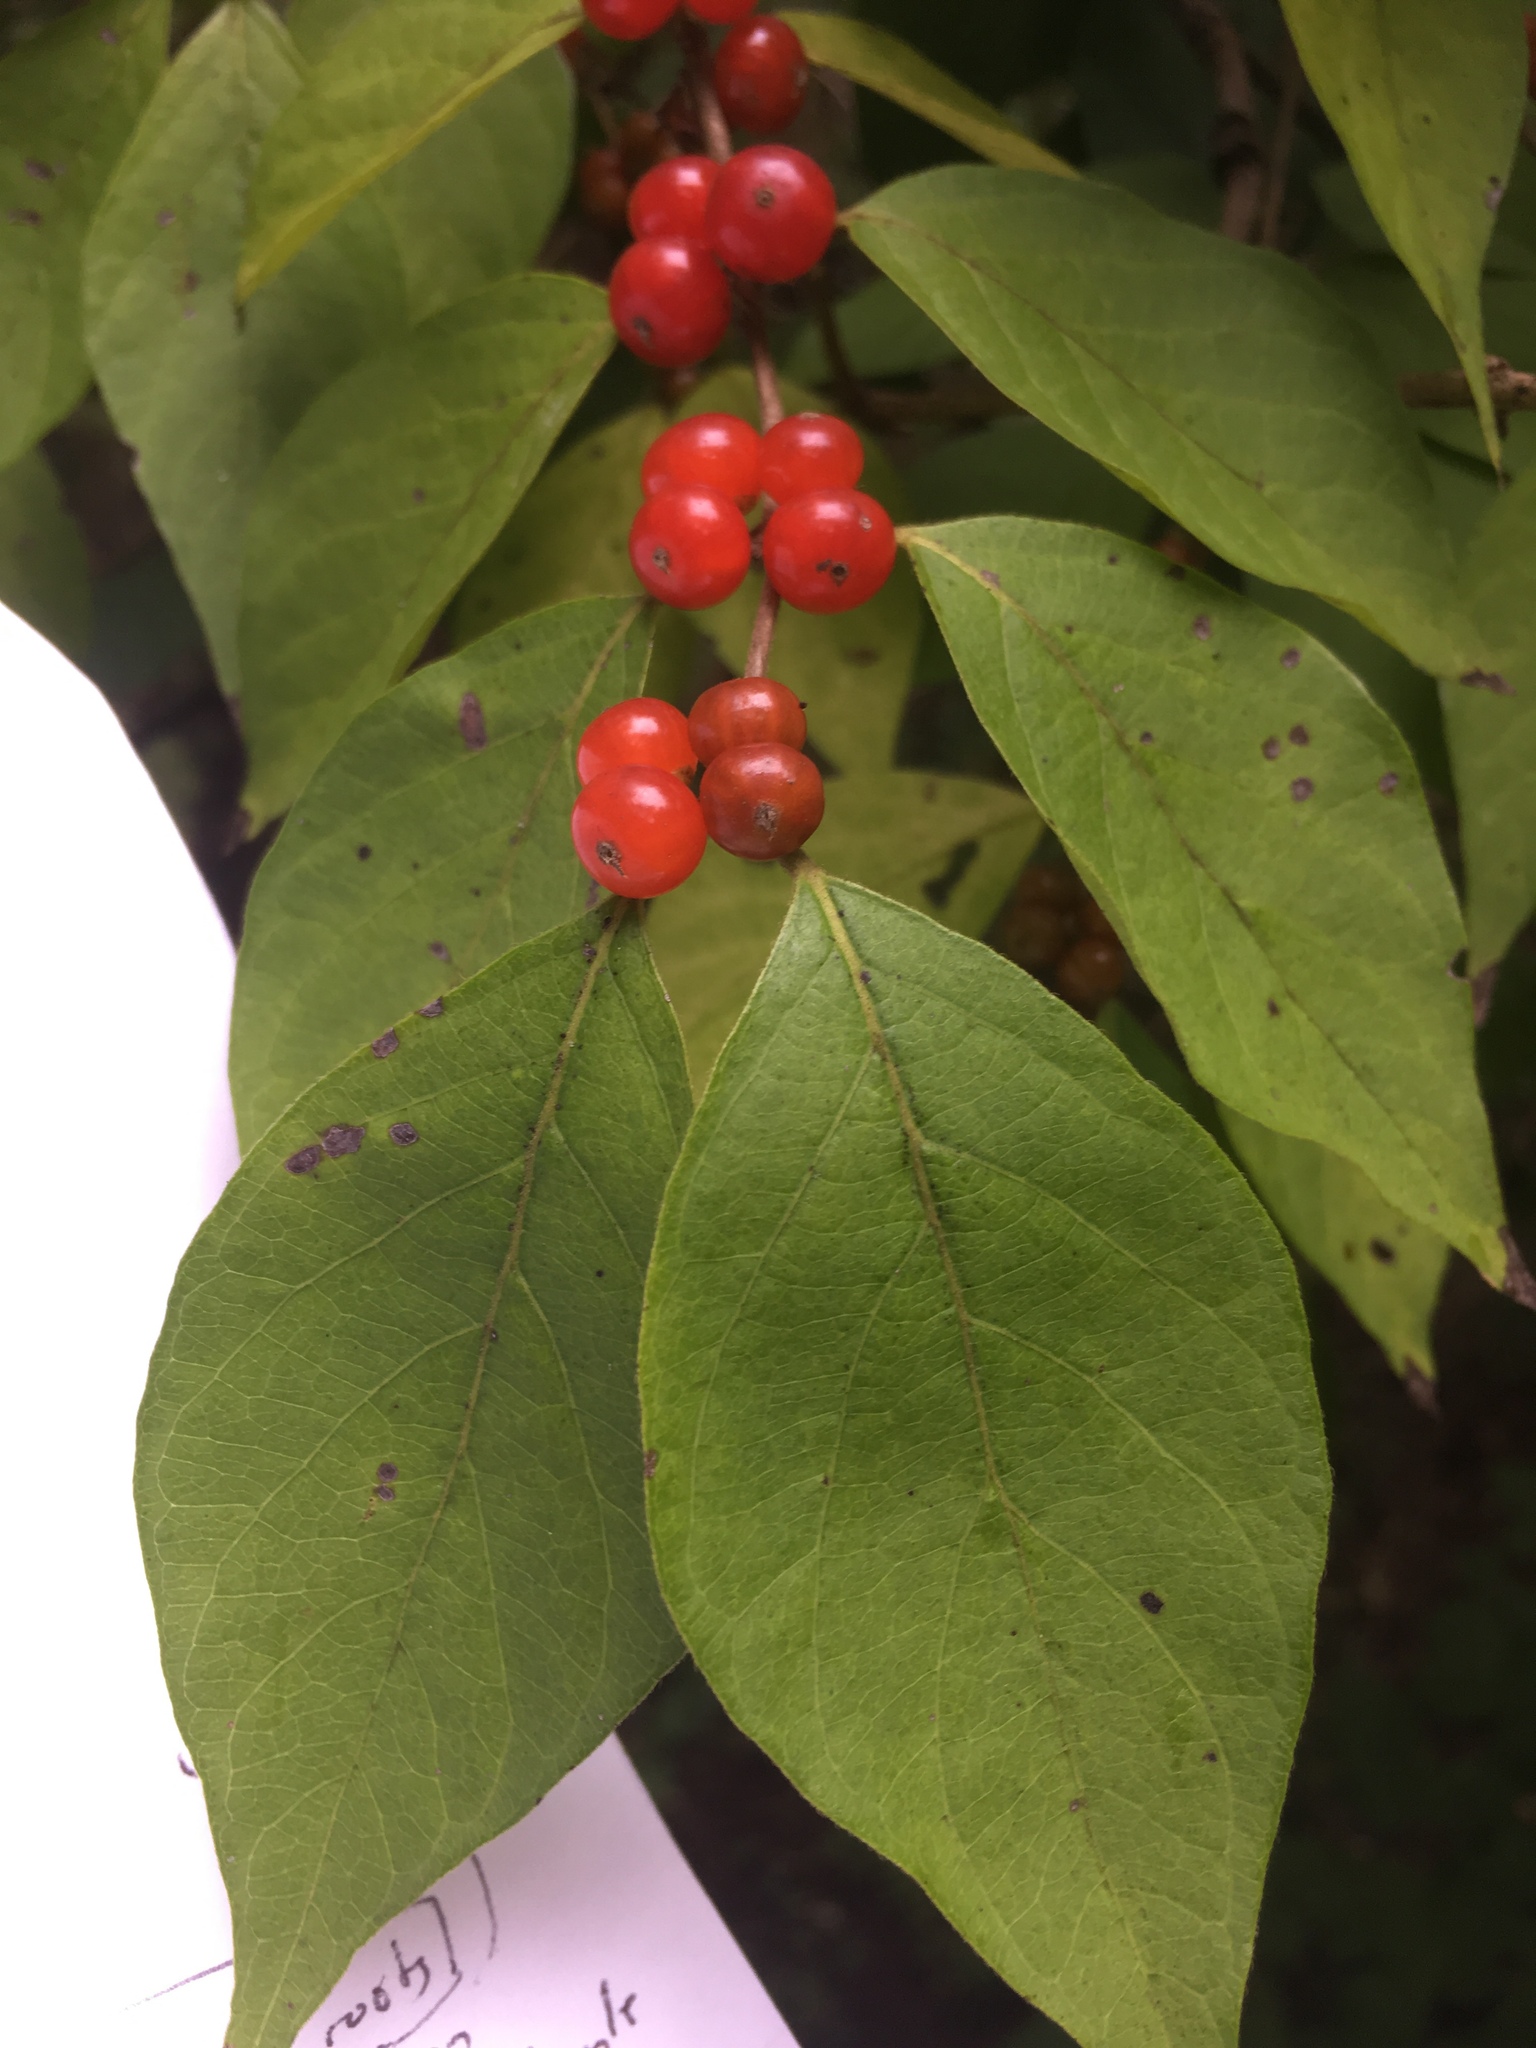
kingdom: Plantae
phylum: Tracheophyta
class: Magnoliopsida
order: Dipsacales
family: Caprifoliaceae
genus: Lonicera
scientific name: Lonicera maackii
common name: Amur honeysuckle
